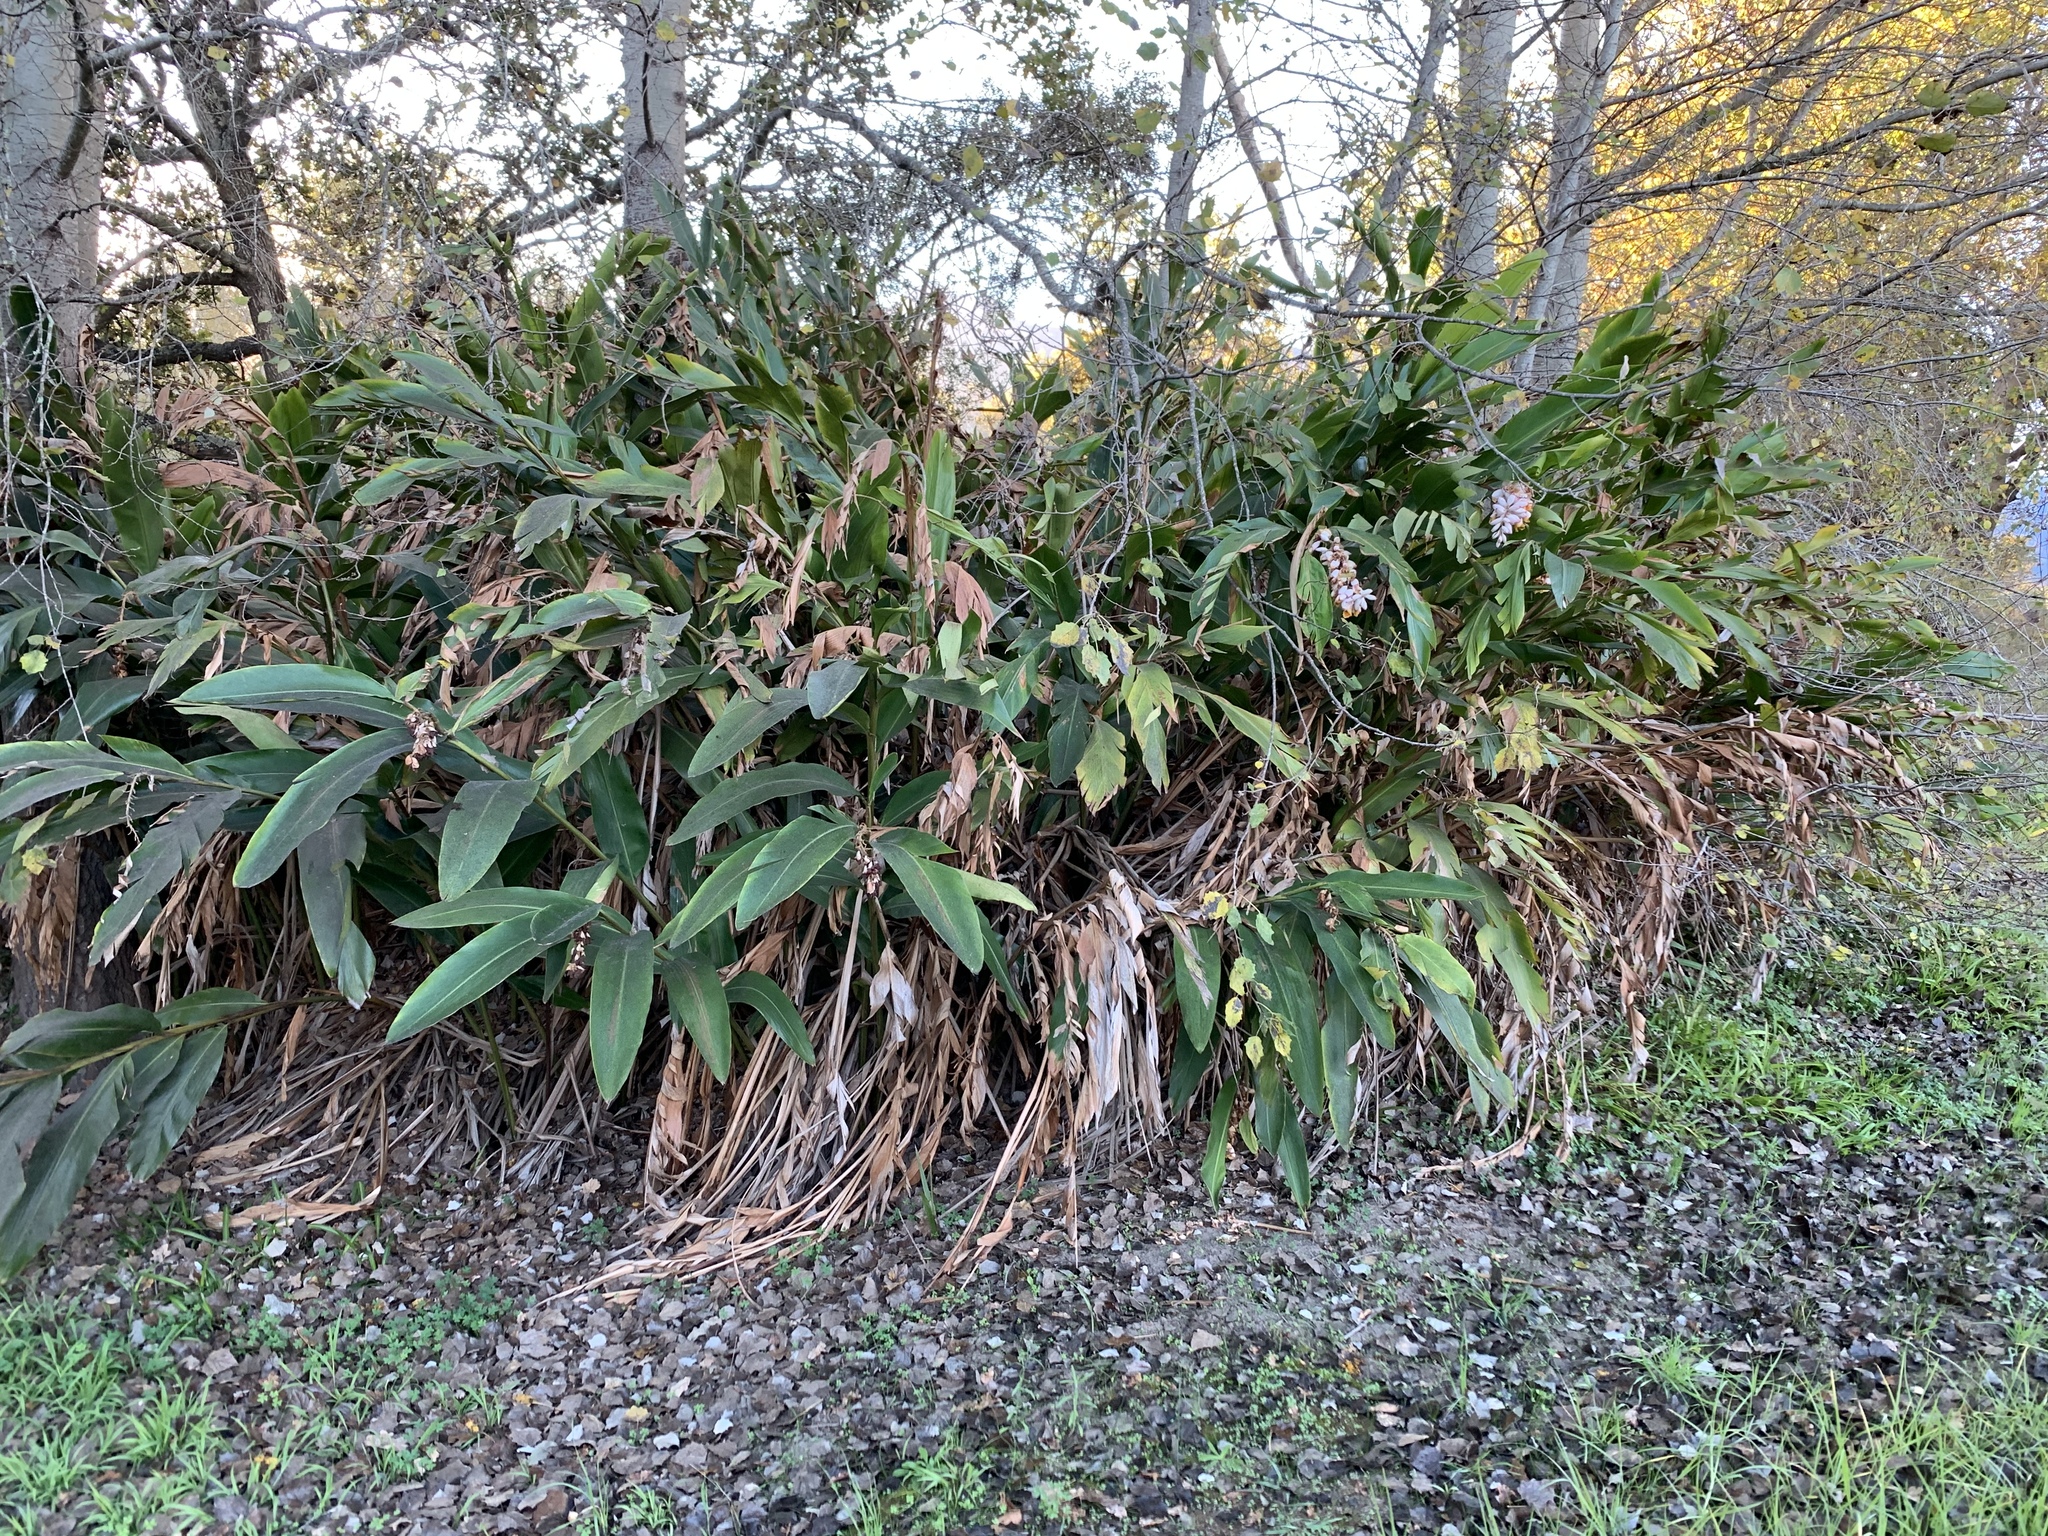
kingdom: Plantae
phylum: Tracheophyta
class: Liliopsida
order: Zingiberales
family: Zingiberaceae
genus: Alpinia
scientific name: Alpinia zerumbet
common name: Shellplant
